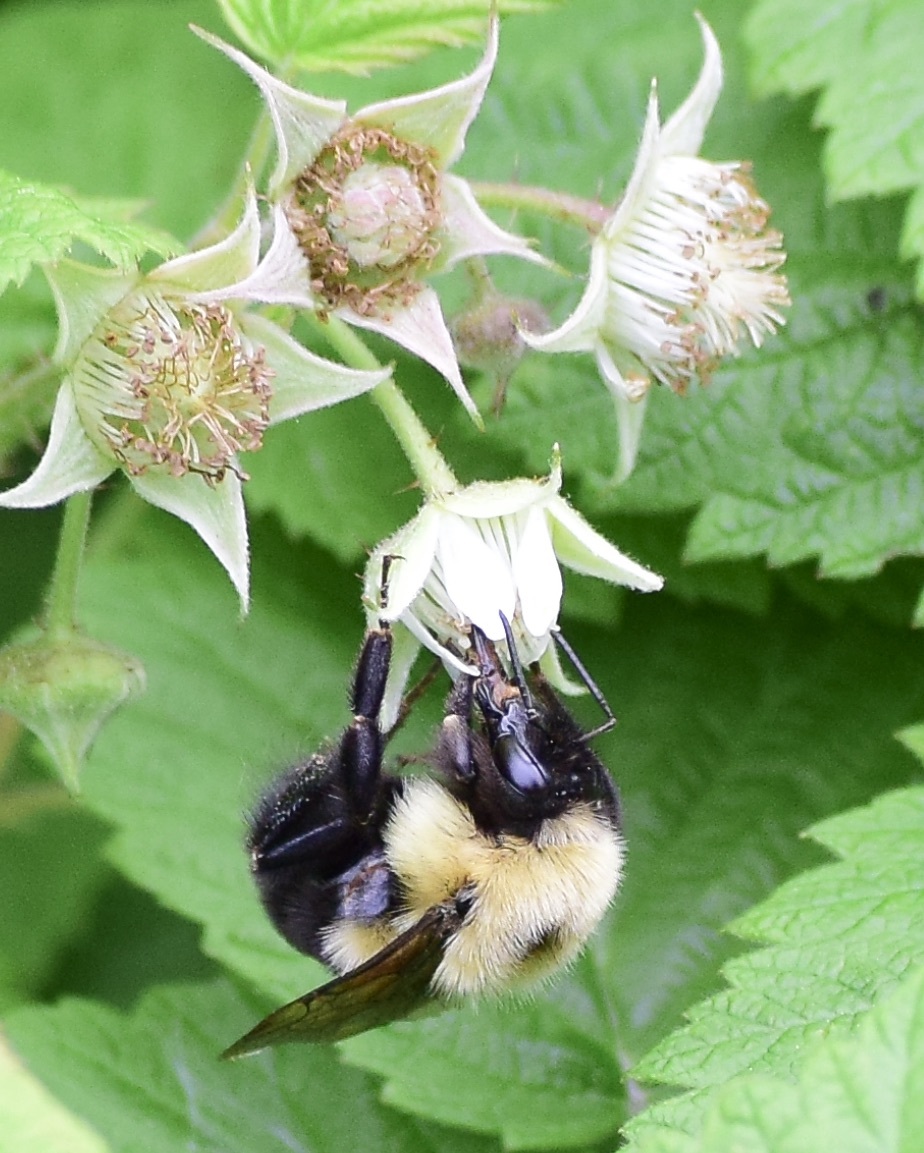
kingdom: Animalia
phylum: Arthropoda
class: Insecta
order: Hymenoptera
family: Apidae
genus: Bombus
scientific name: Bombus bimaculatus
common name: Two-spotted bumble bee
